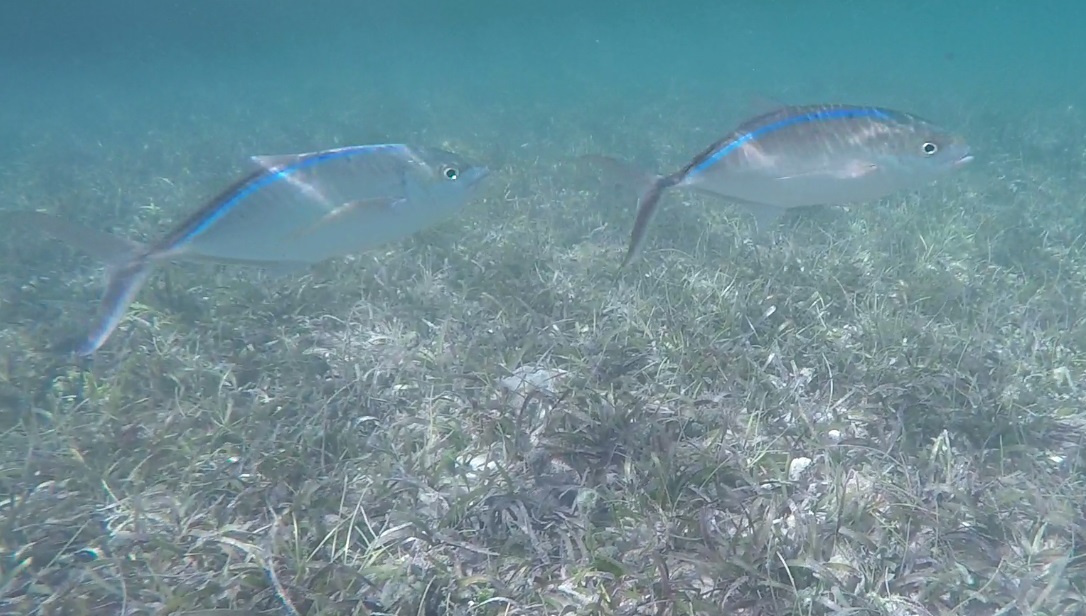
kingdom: Animalia
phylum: Chordata
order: Perciformes
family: Carangidae
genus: Caranx
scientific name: Caranx ruber
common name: Bar jack
